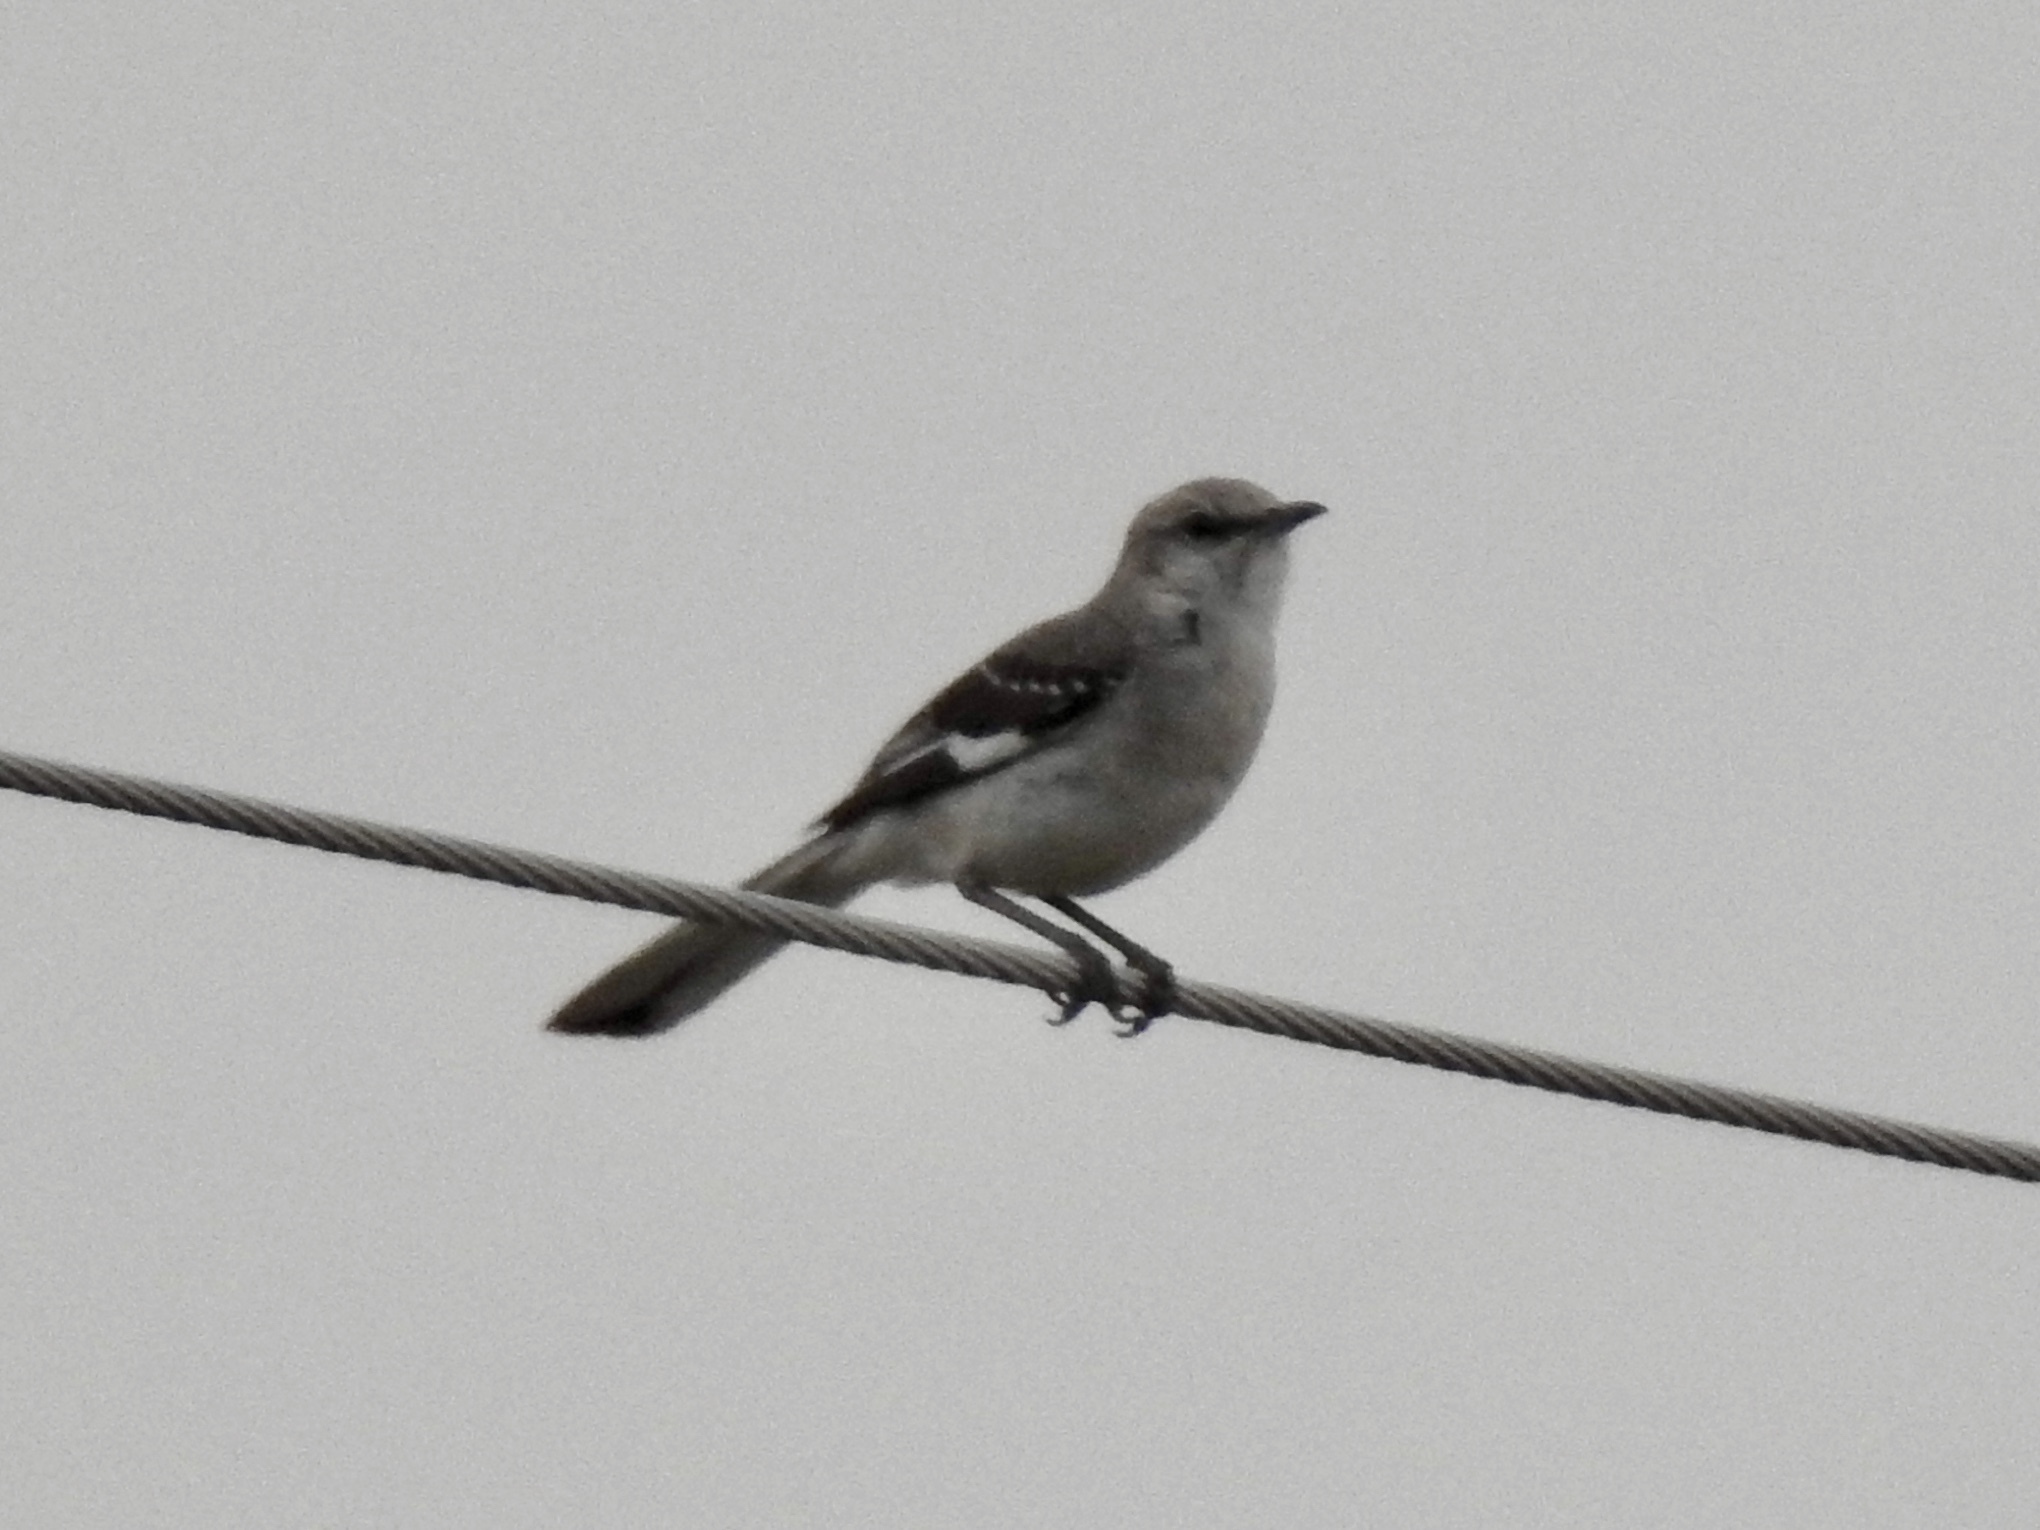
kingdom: Animalia
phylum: Chordata
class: Aves
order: Passeriformes
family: Mimidae
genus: Mimus
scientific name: Mimus polyglottos
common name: Northern mockingbird
